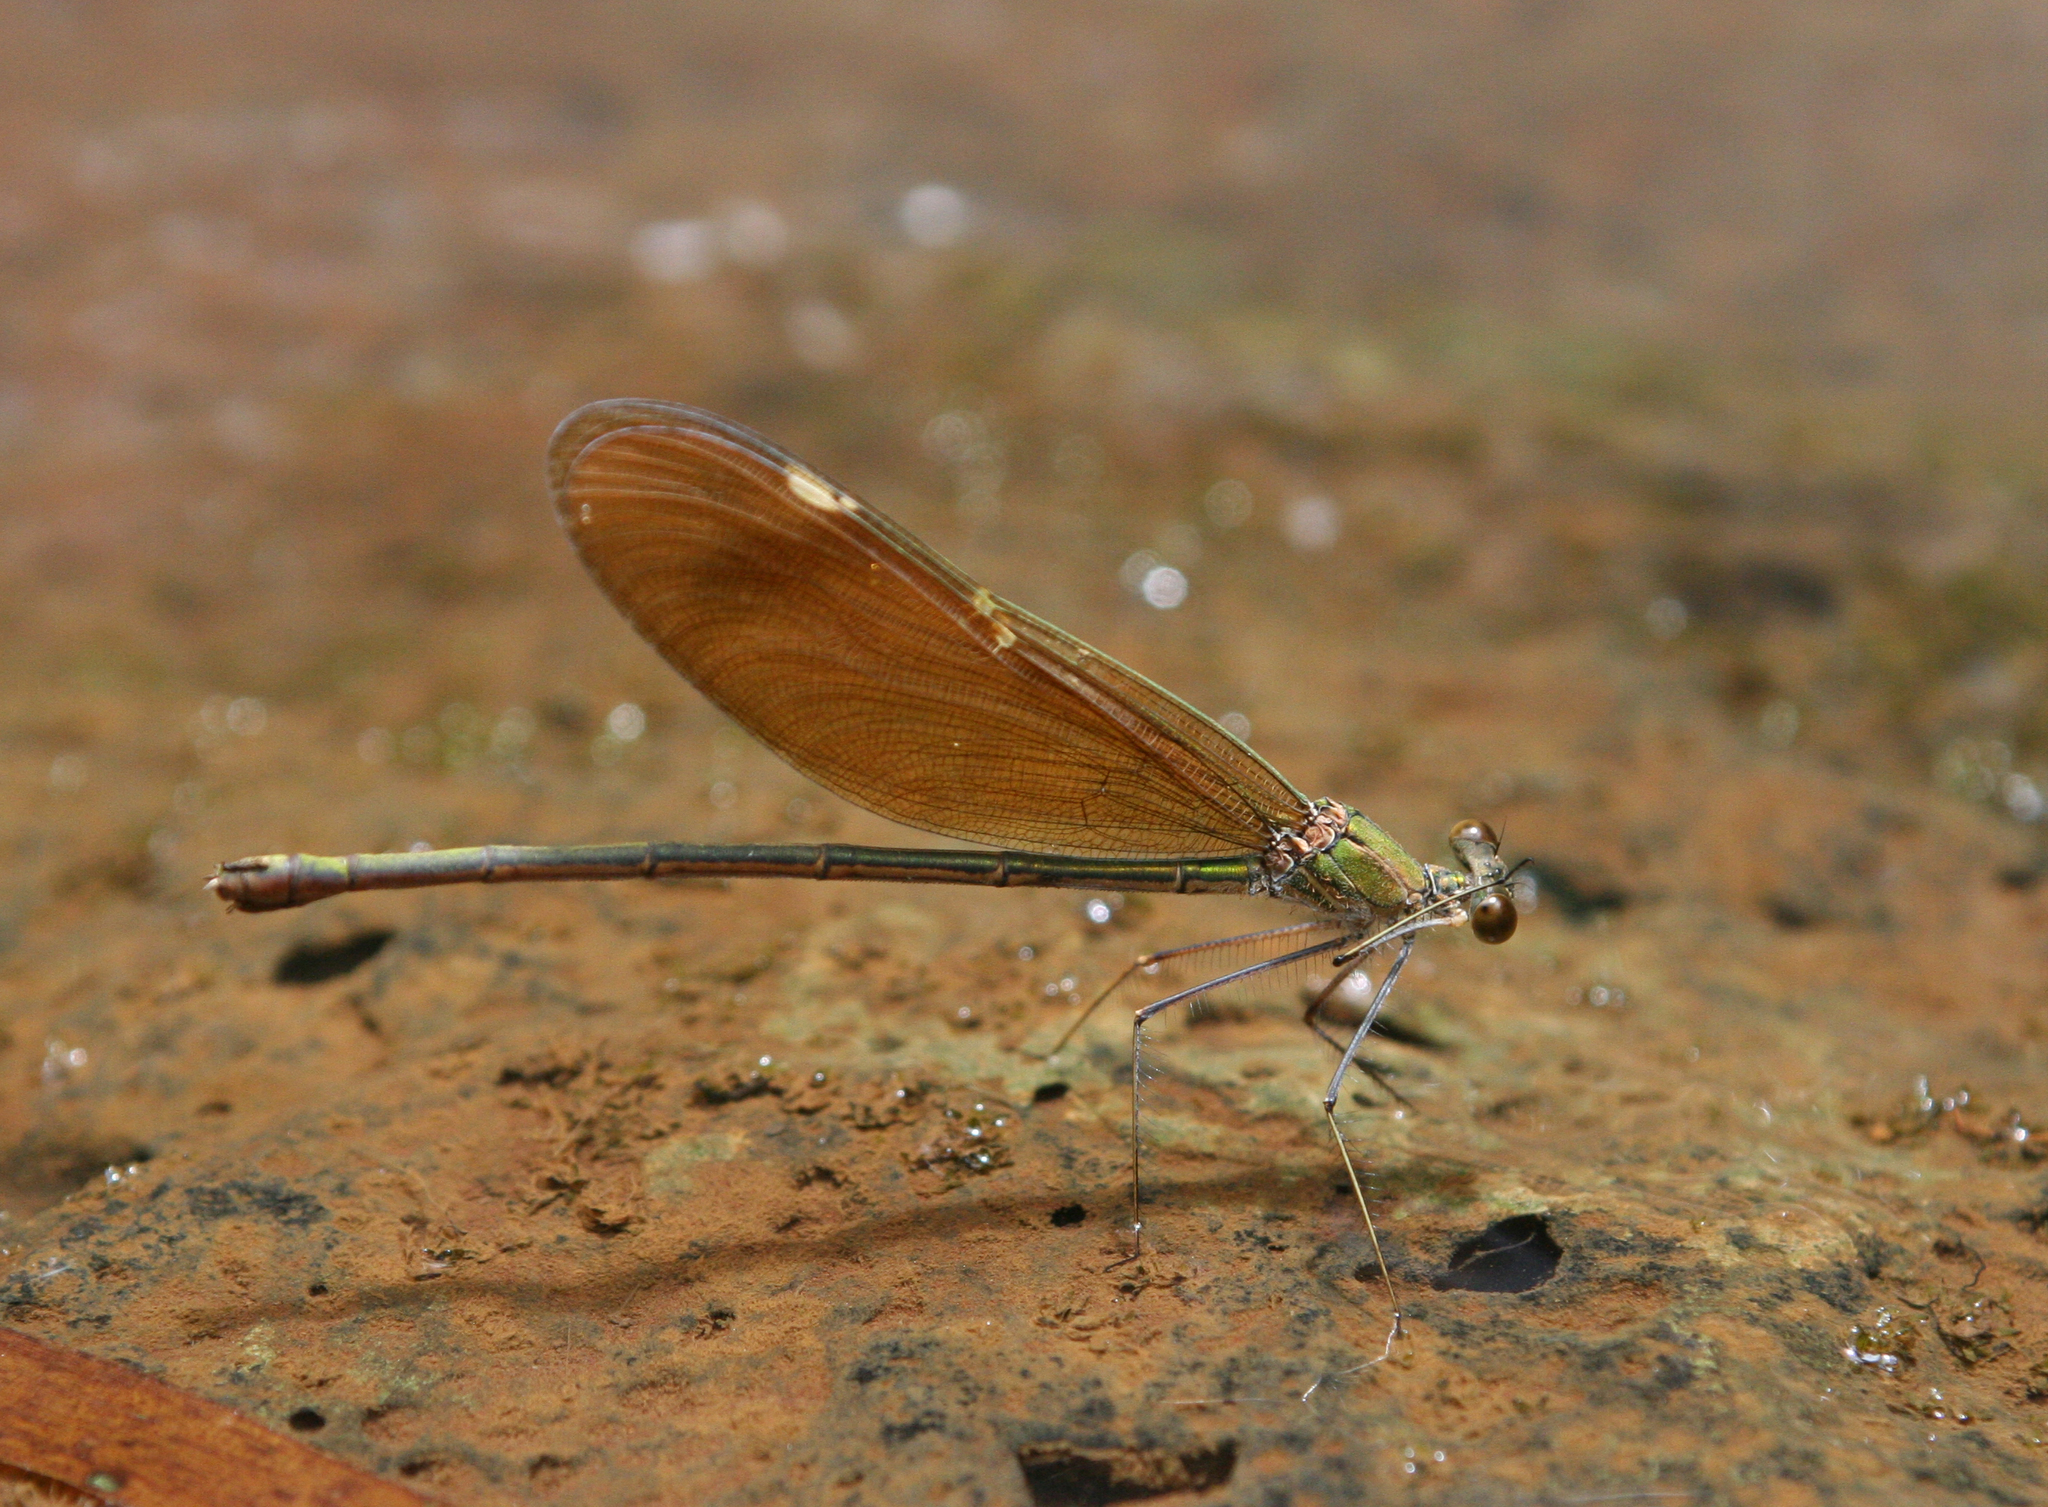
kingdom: Animalia
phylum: Arthropoda
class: Insecta
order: Odonata
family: Calopterygidae
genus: Neurobasis
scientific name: Neurobasis chinensis
